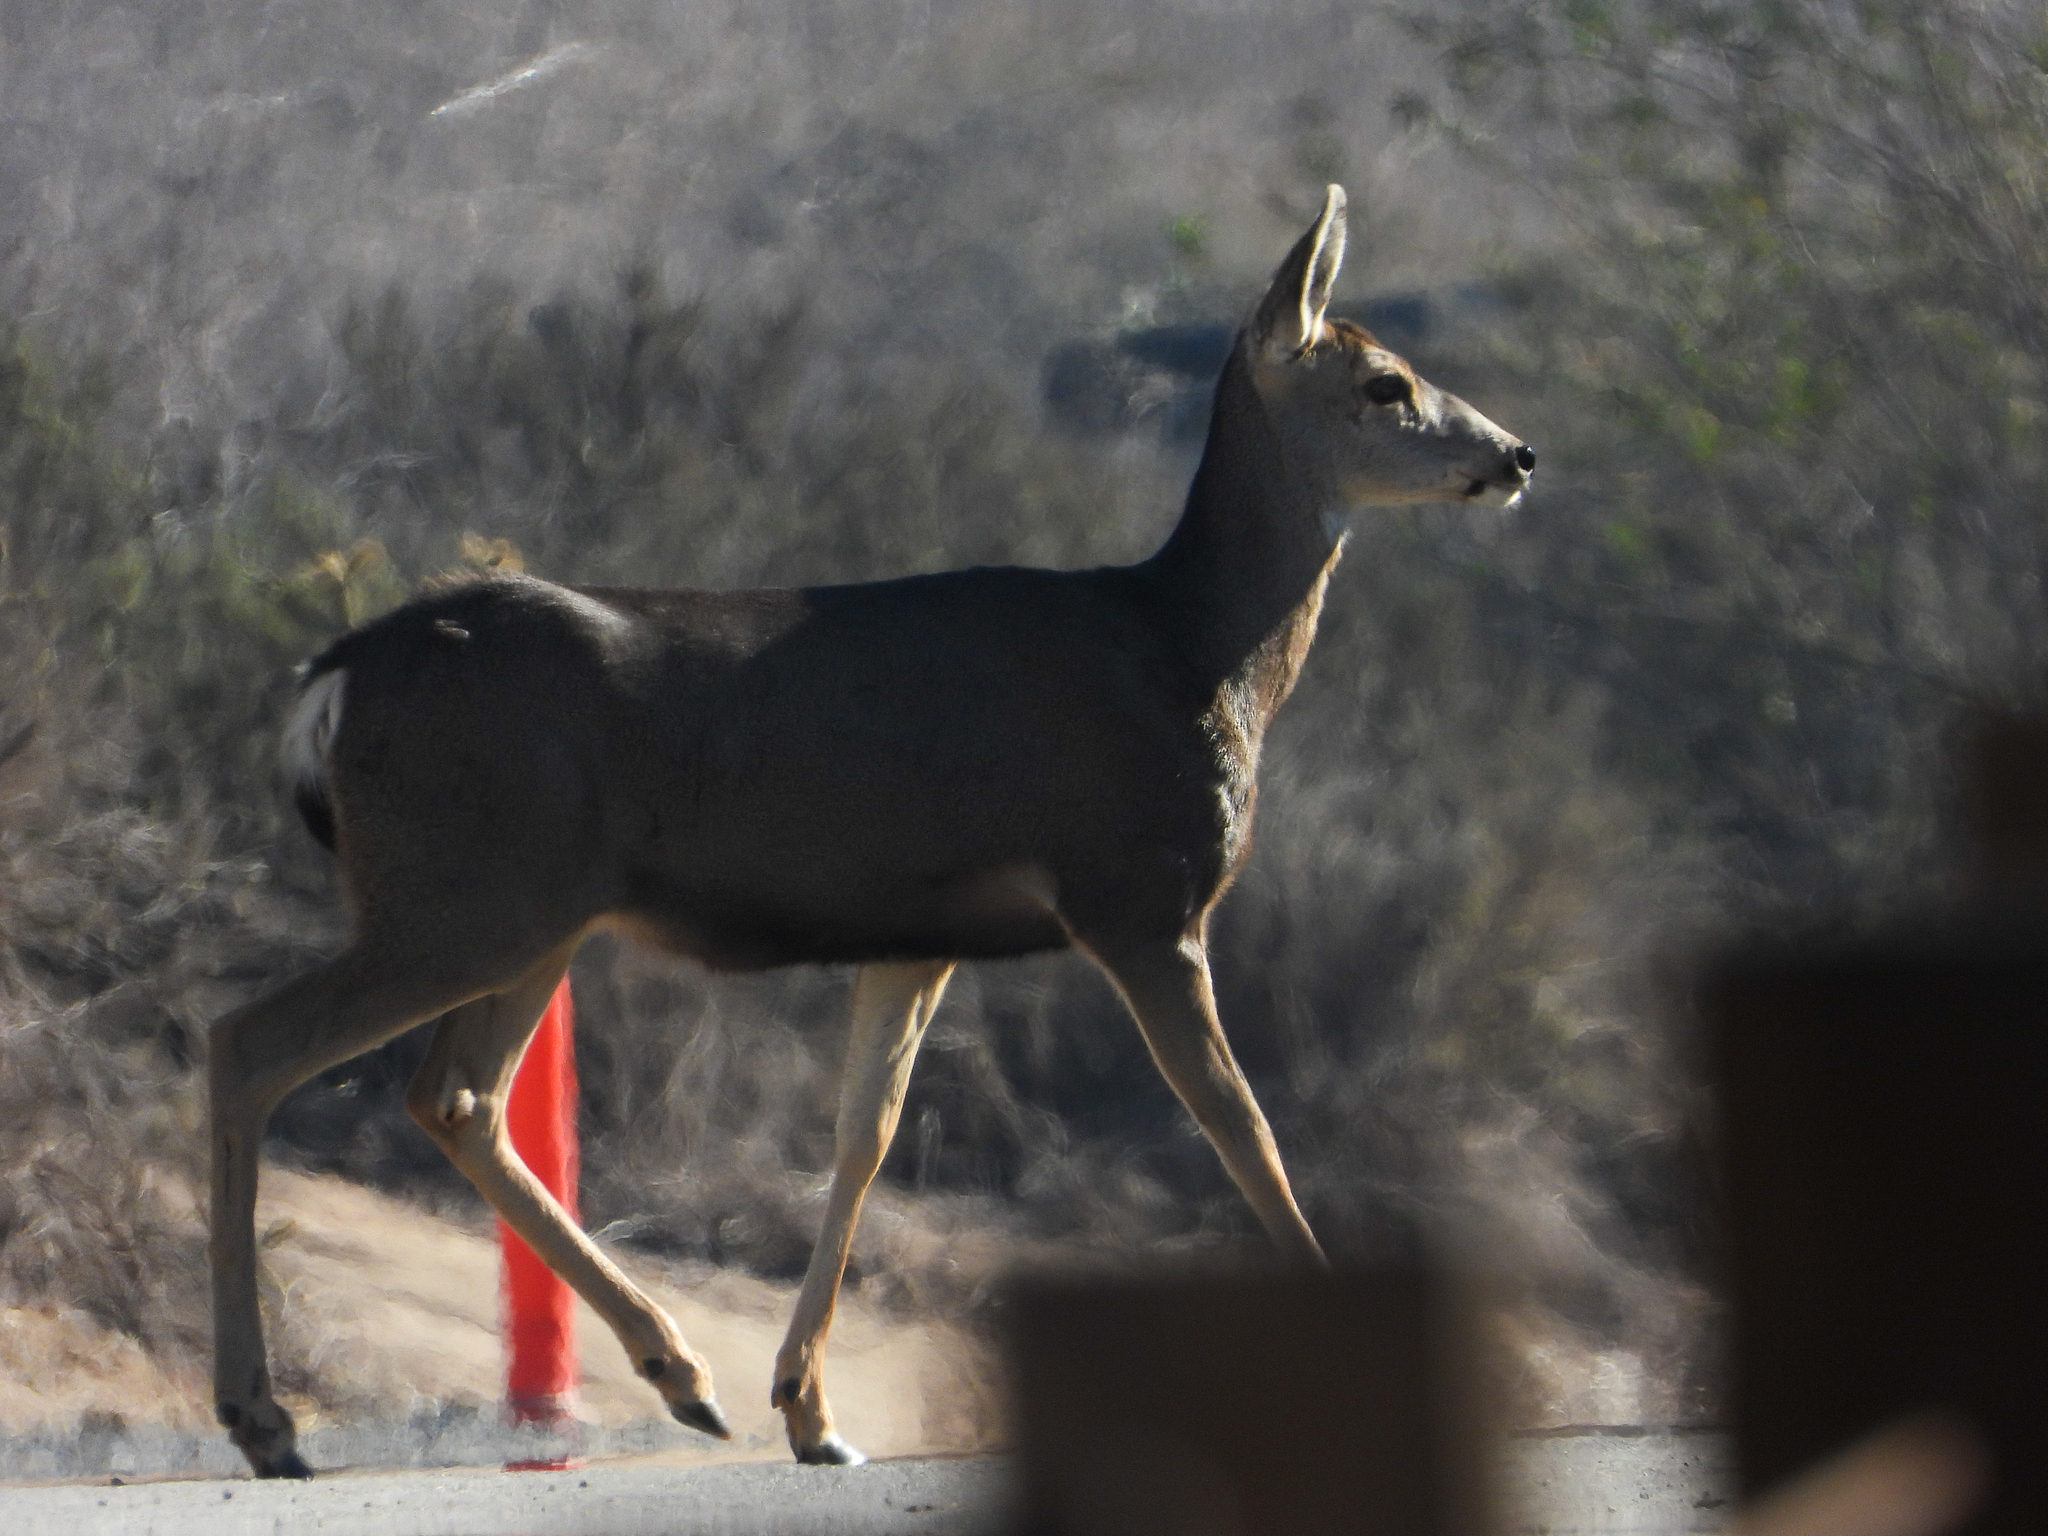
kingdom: Animalia
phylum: Chordata
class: Mammalia
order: Artiodactyla
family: Cervidae
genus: Odocoileus
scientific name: Odocoileus hemionus
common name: Mule deer
